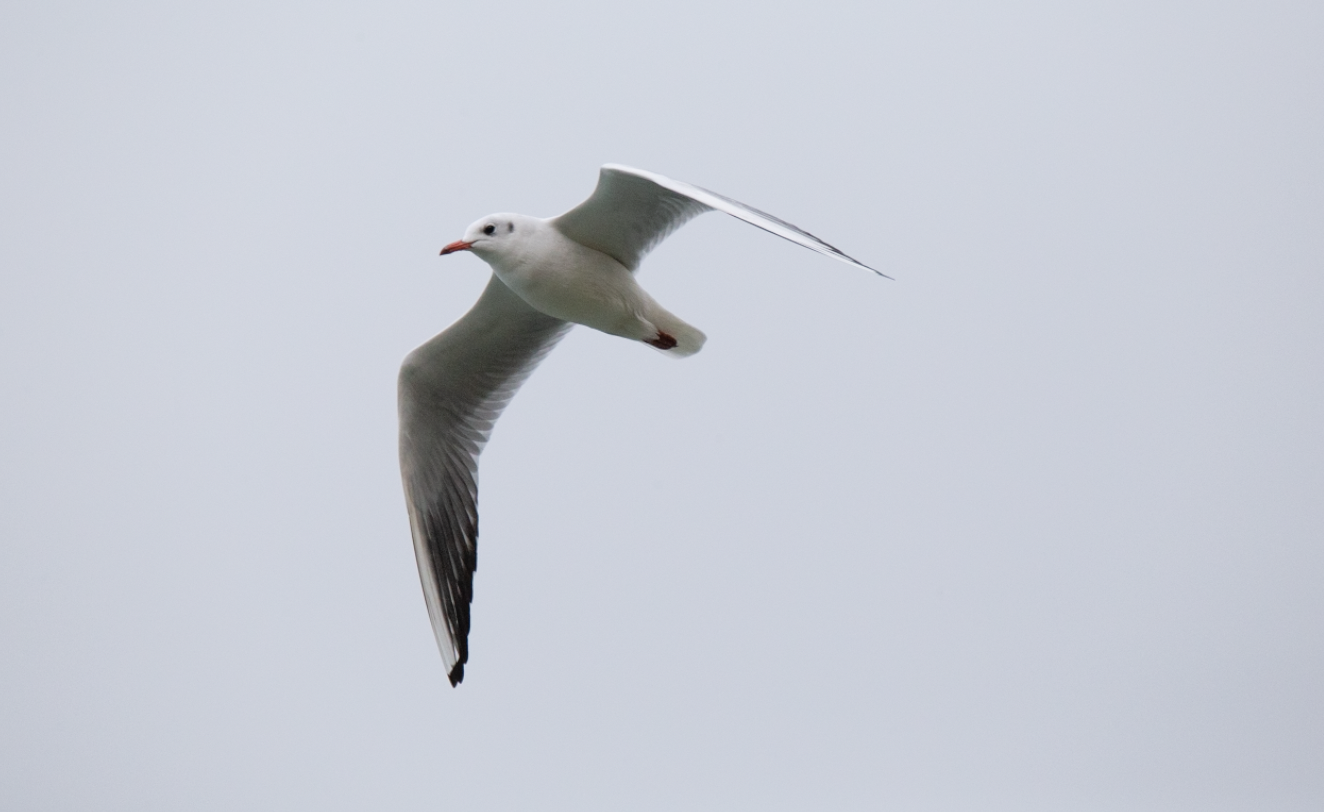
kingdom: Animalia
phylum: Chordata
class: Aves
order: Charadriiformes
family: Laridae
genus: Chroicocephalus
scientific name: Chroicocephalus ridibundus
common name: Black-headed gull
